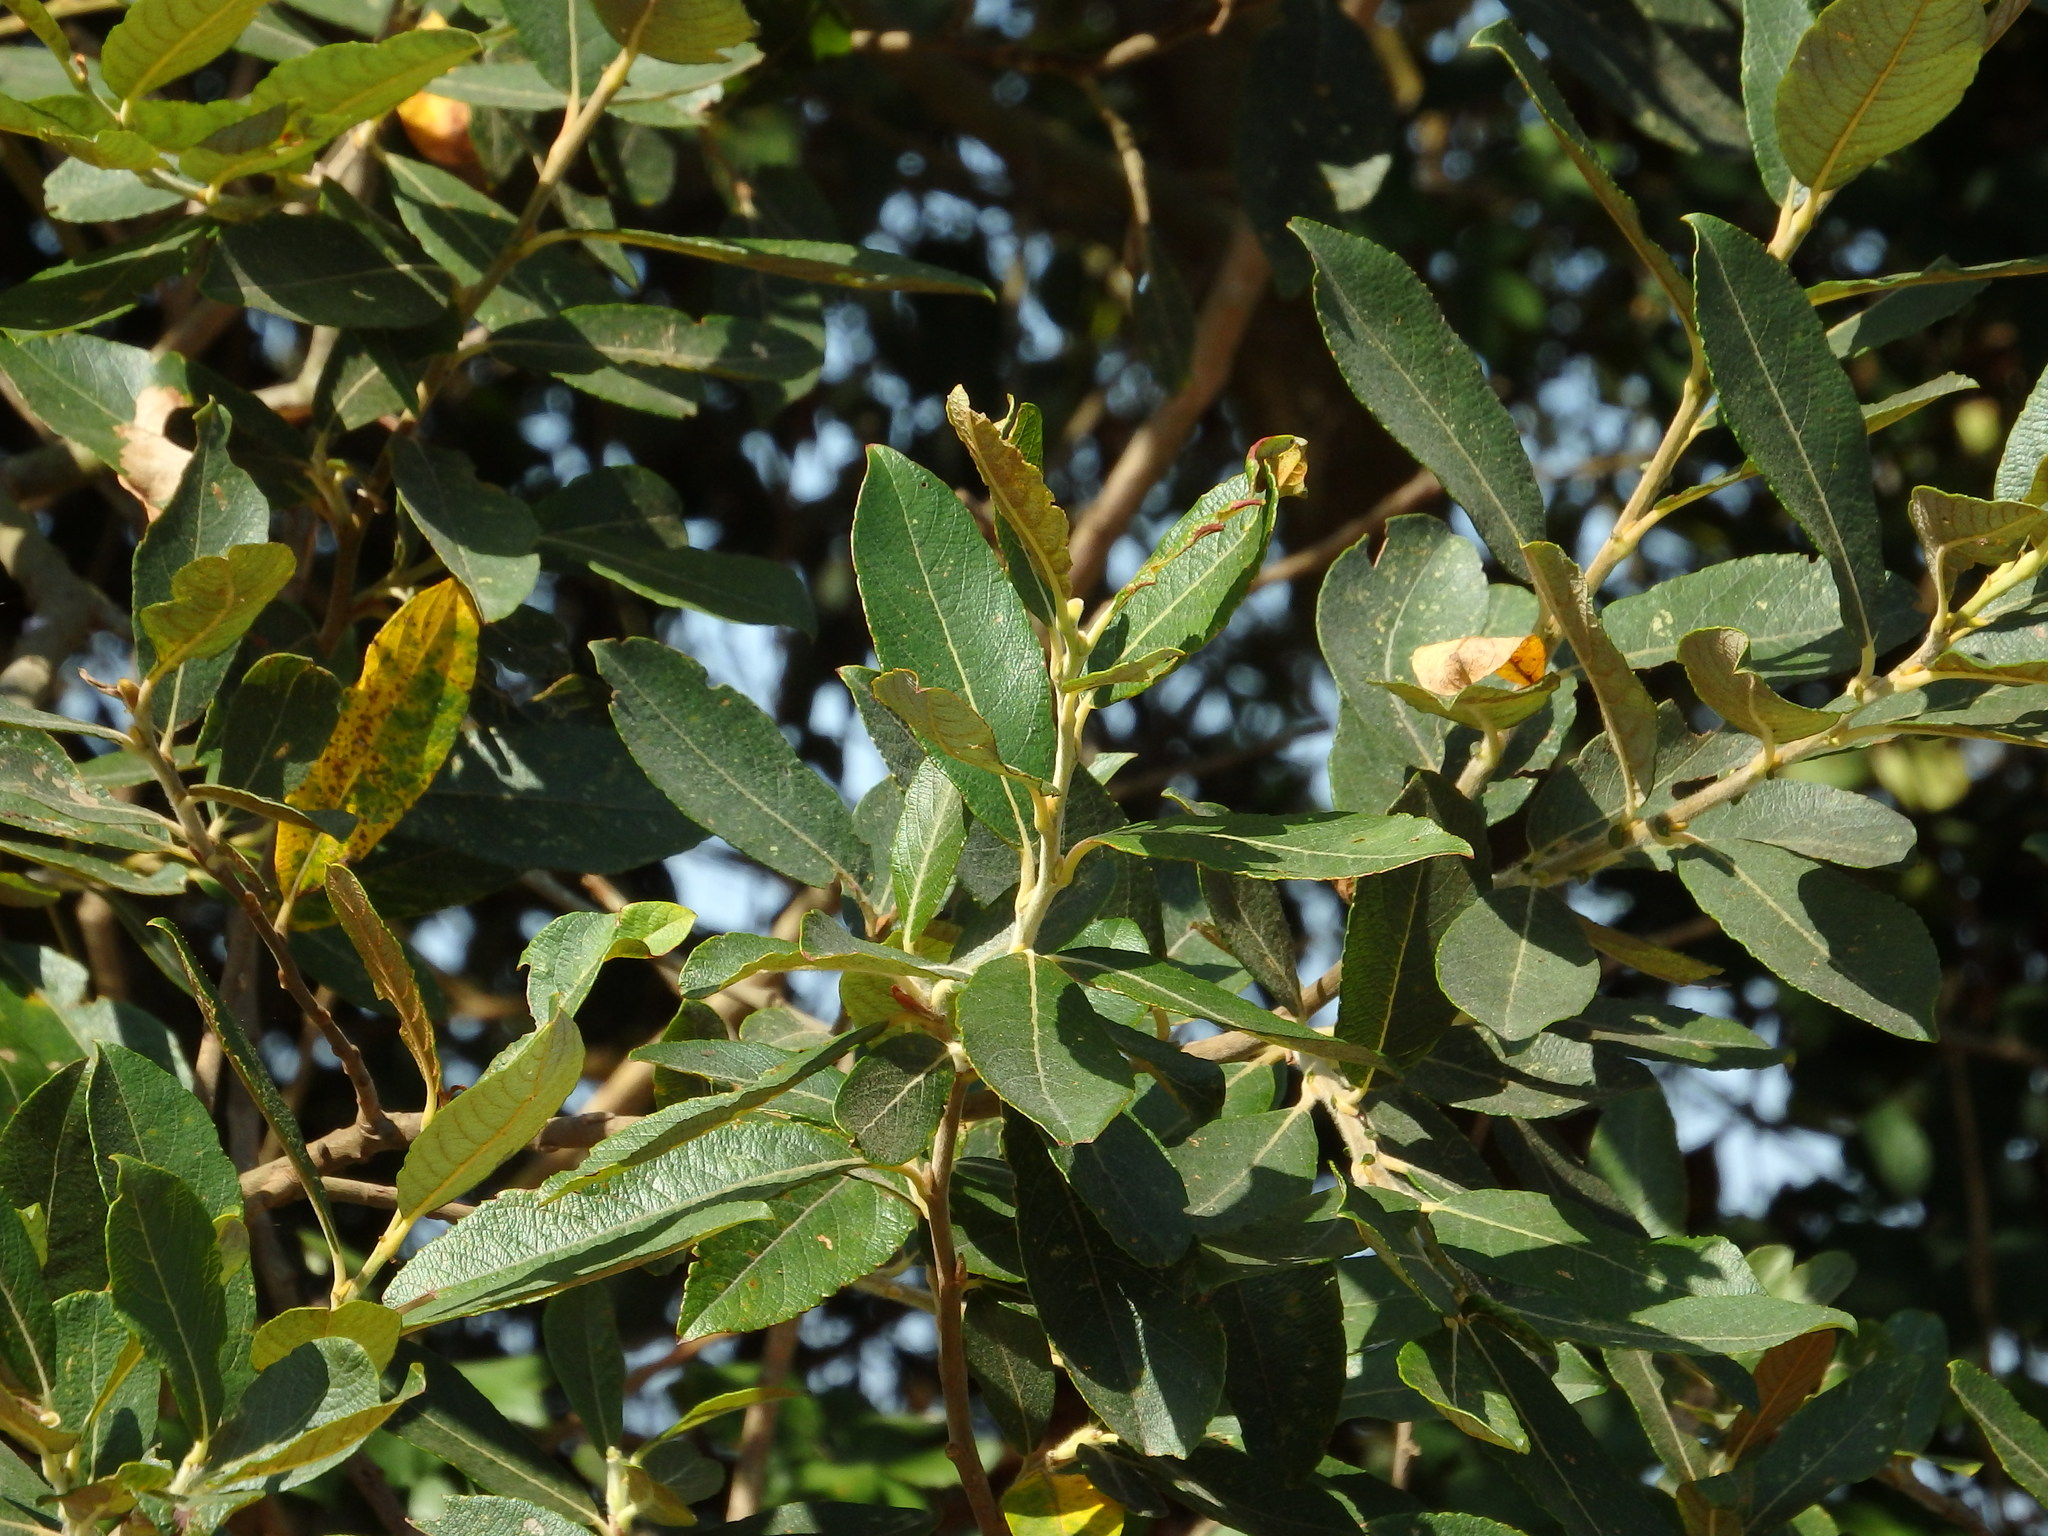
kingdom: Plantae
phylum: Tracheophyta
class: Magnoliopsida
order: Malpighiales
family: Salicaceae
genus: Salix
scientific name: Salix atrocinerea
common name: Rusty willow
